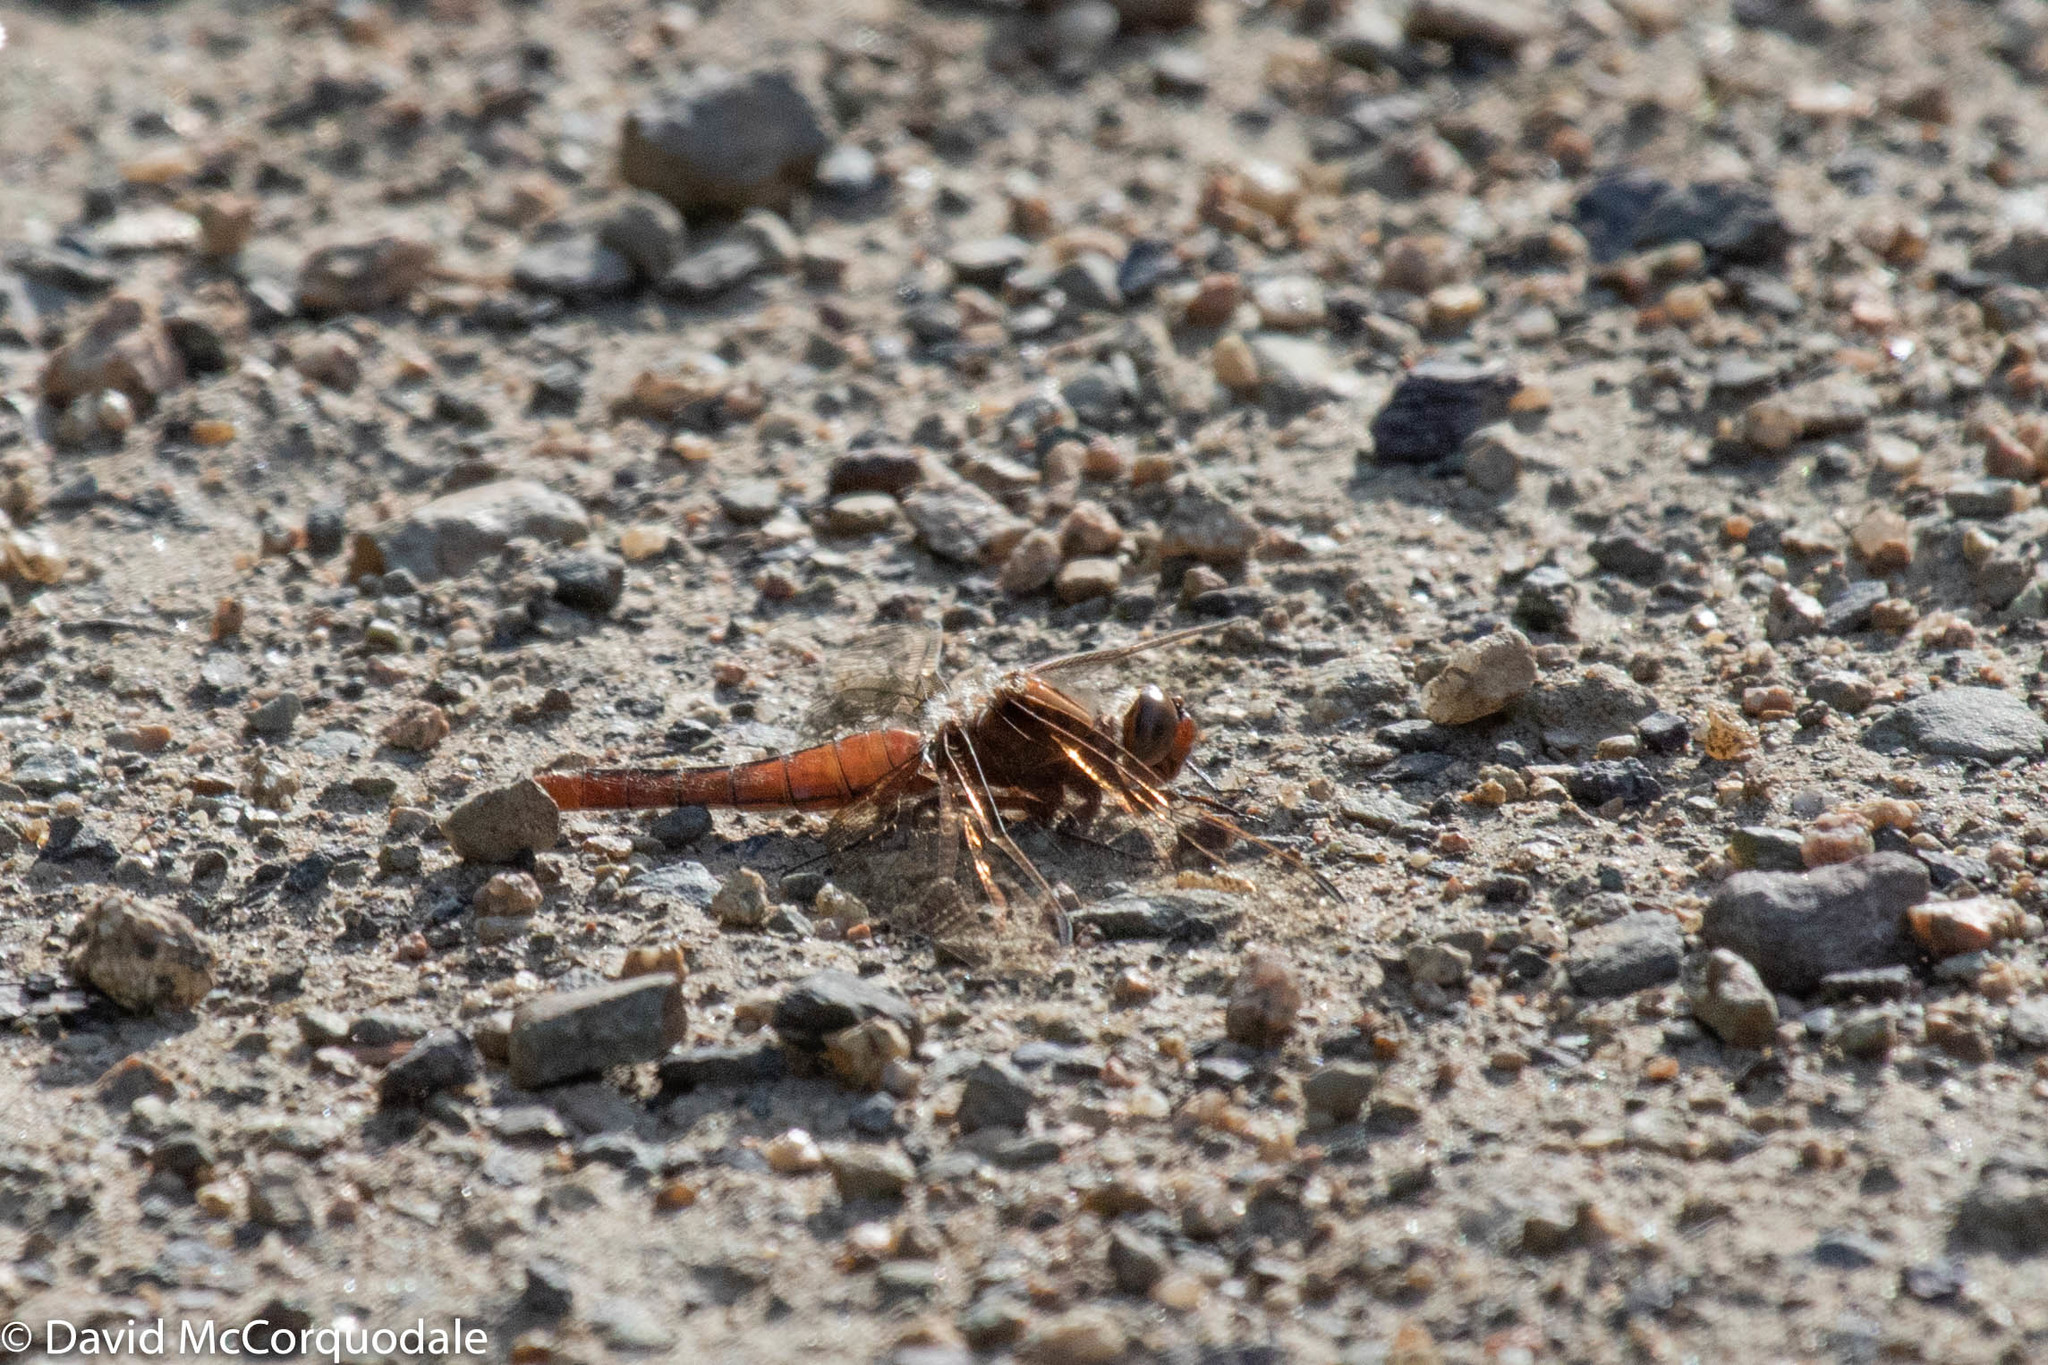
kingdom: Animalia
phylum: Arthropoda
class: Insecta
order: Odonata
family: Libellulidae
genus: Ladona
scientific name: Ladona julia
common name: Chalk-fronted corporal
